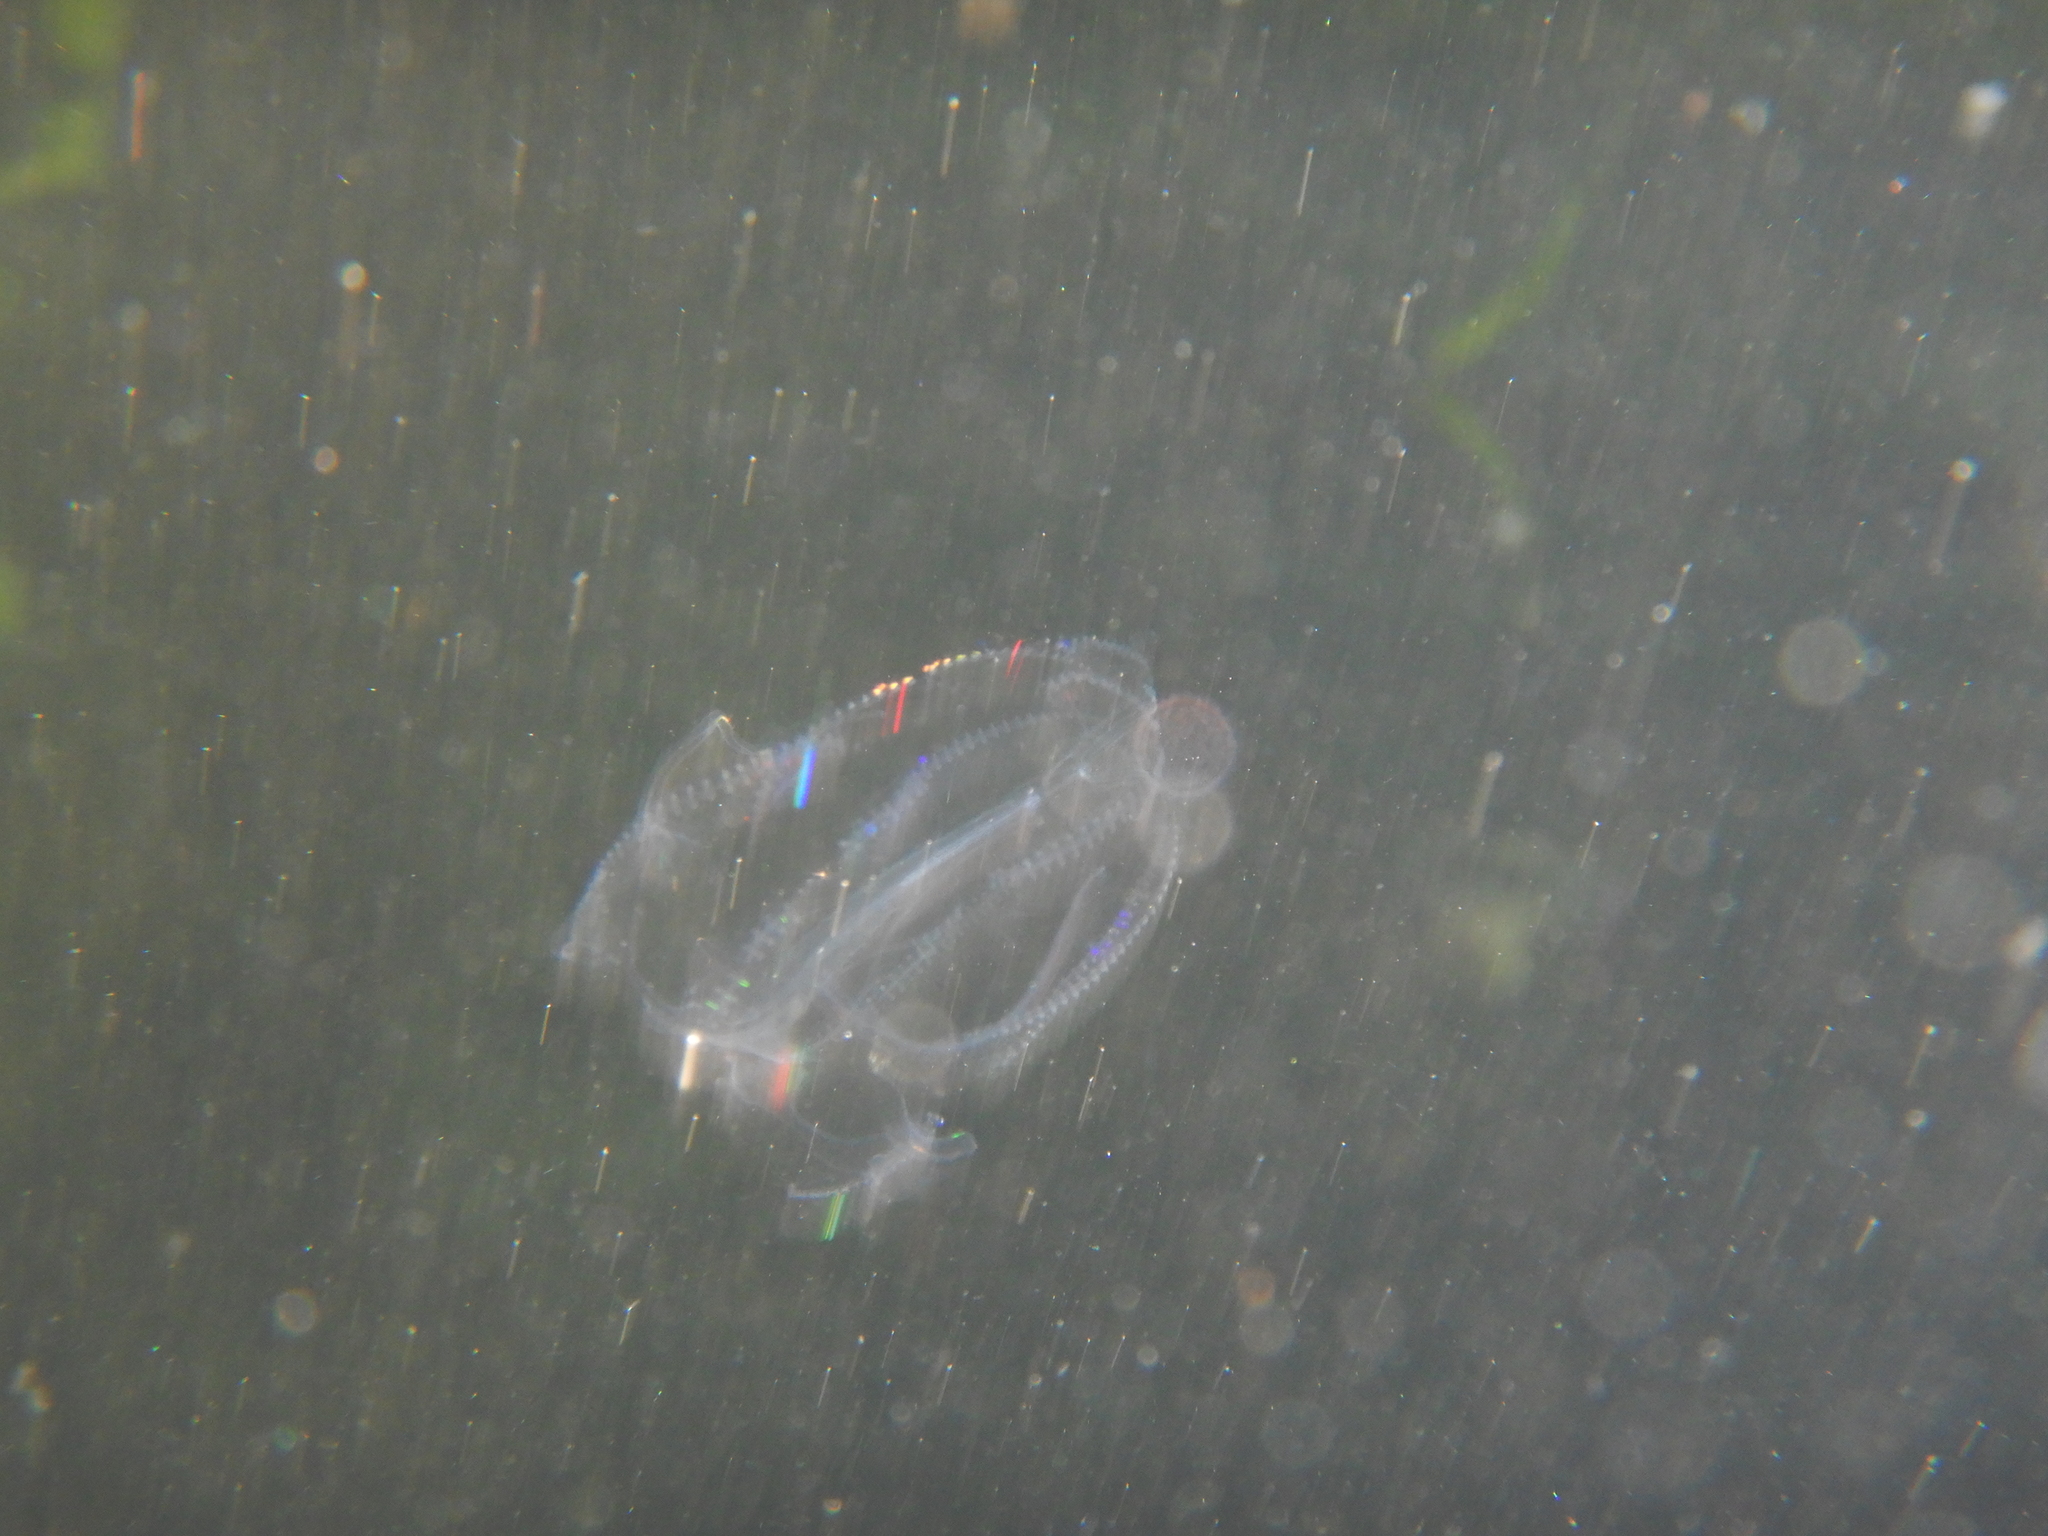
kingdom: Animalia
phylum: Ctenophora
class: Tentaculata
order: Lobata
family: Leucotheidae
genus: Leucothea
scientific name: Leucothea multicornis
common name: Vitreous lobate comb-jelly
